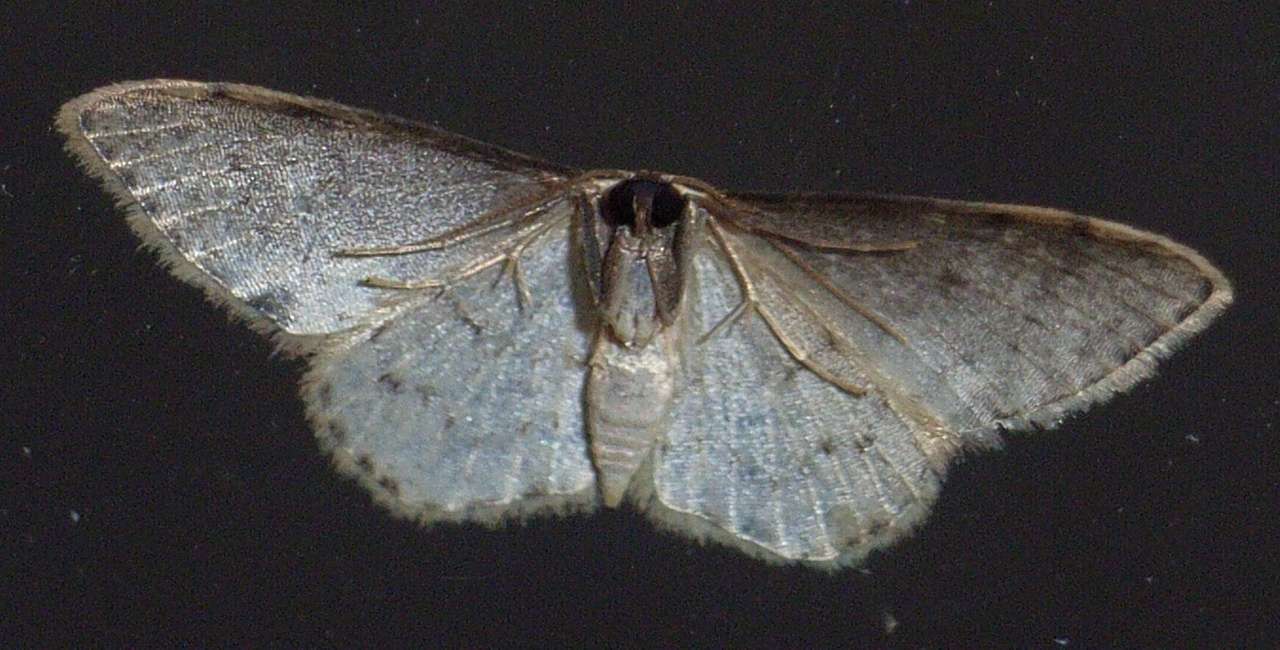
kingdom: Animalia
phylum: Arthropoda
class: Insecta
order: Lepidoptera
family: Geometridae
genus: Idaea
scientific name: Idaea halmaea
